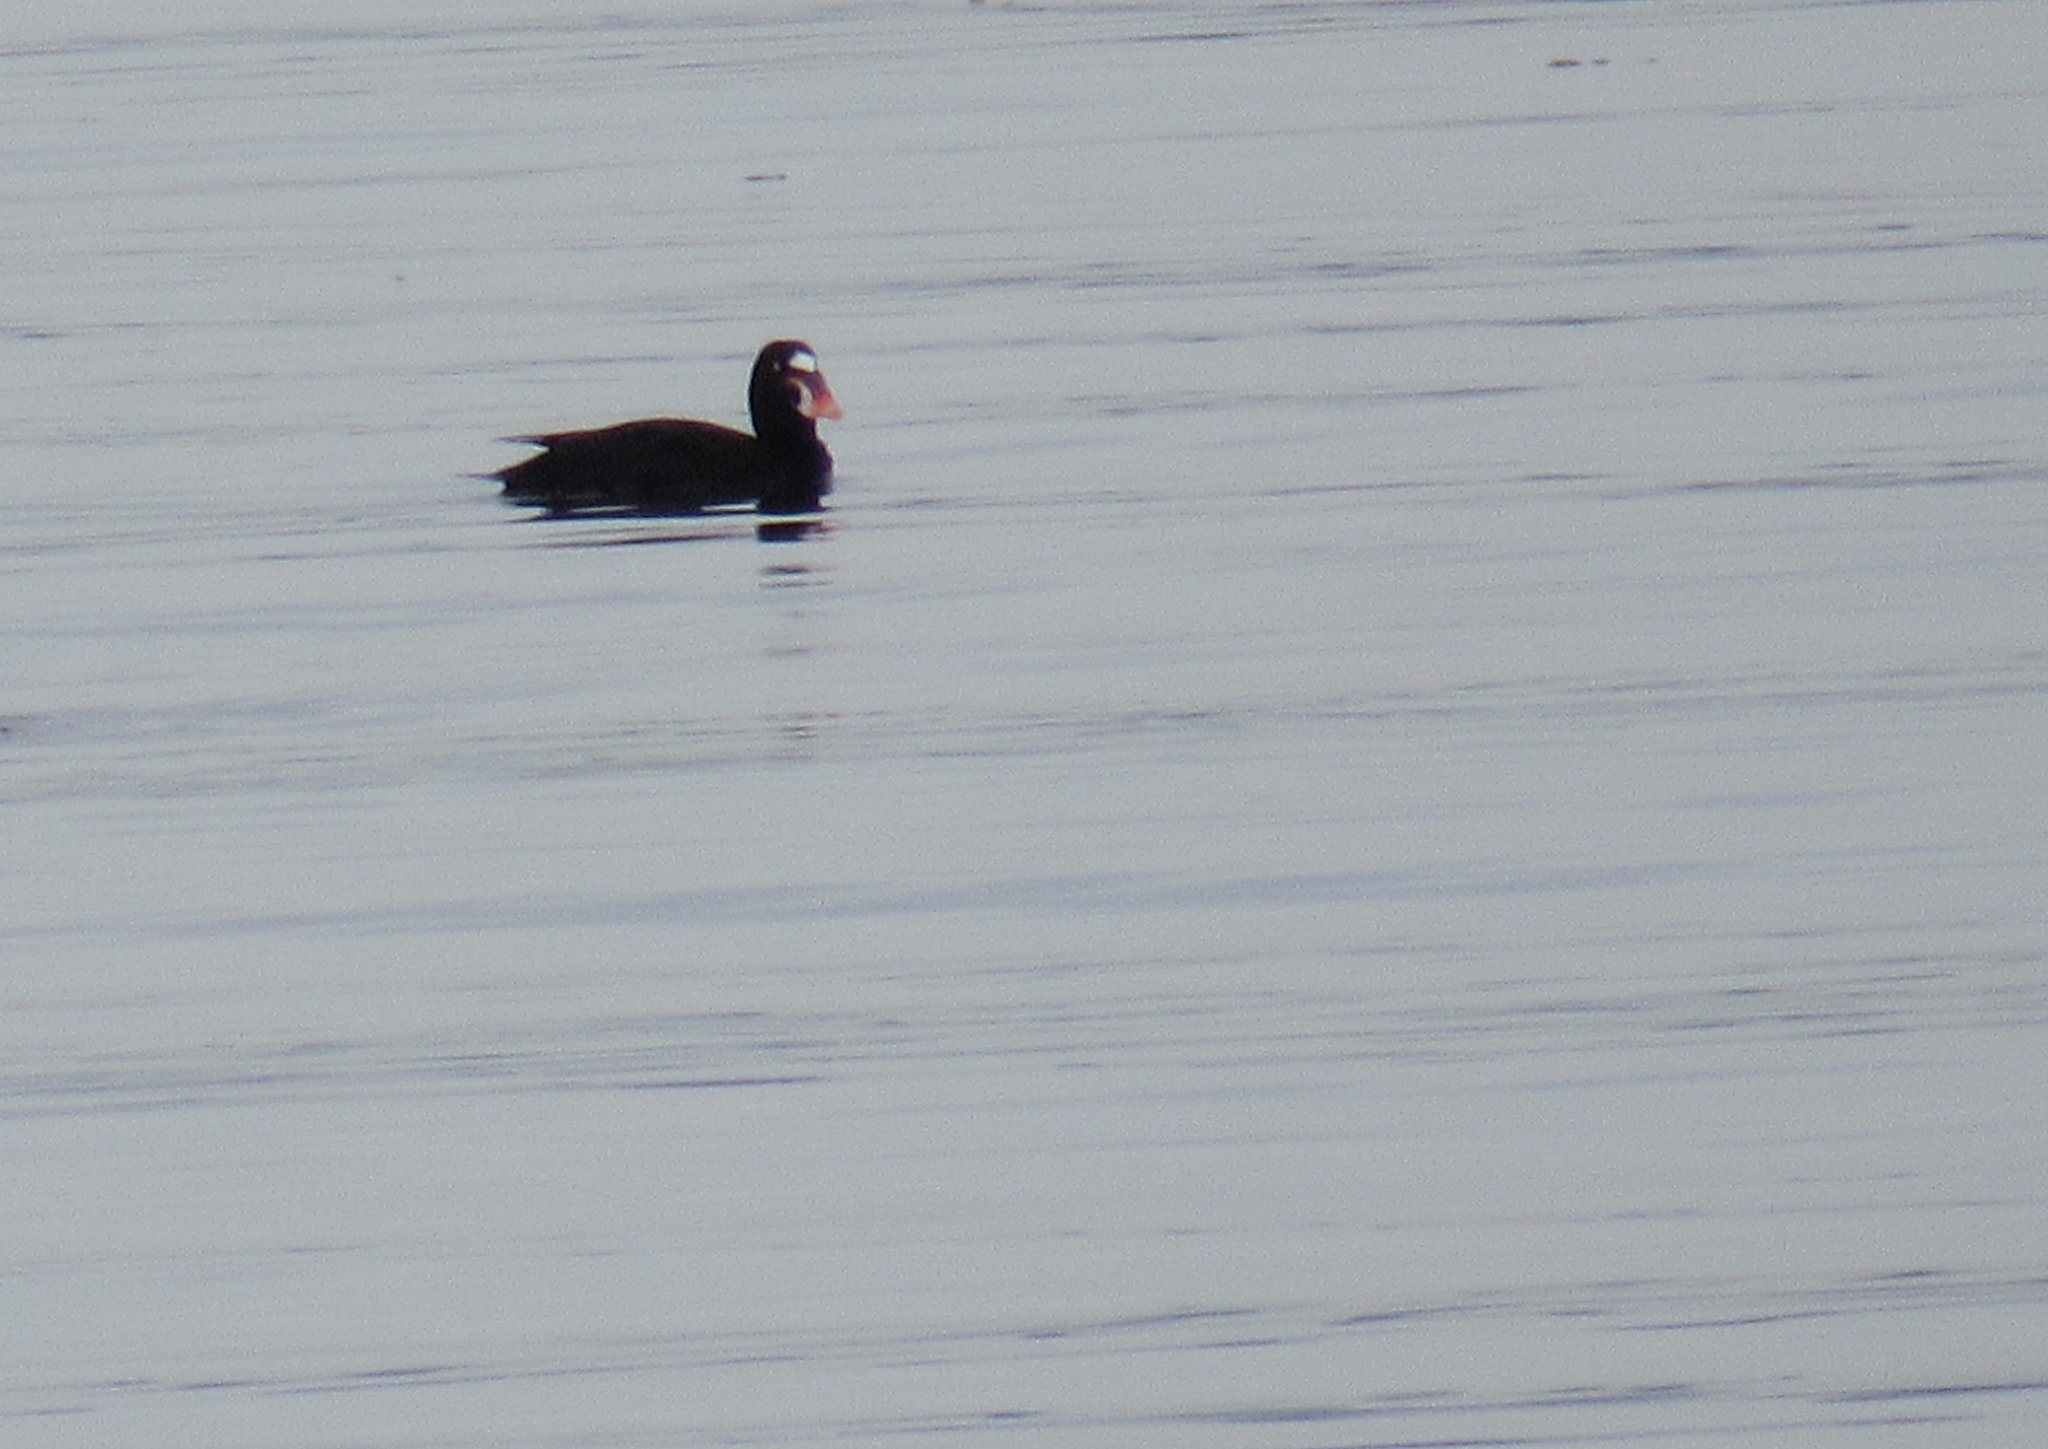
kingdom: Animalia
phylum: Chordata
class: Aves
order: Anseriformes
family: Anatidae
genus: Melanitta
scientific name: Melanitta perspicillata
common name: Surf scoter
